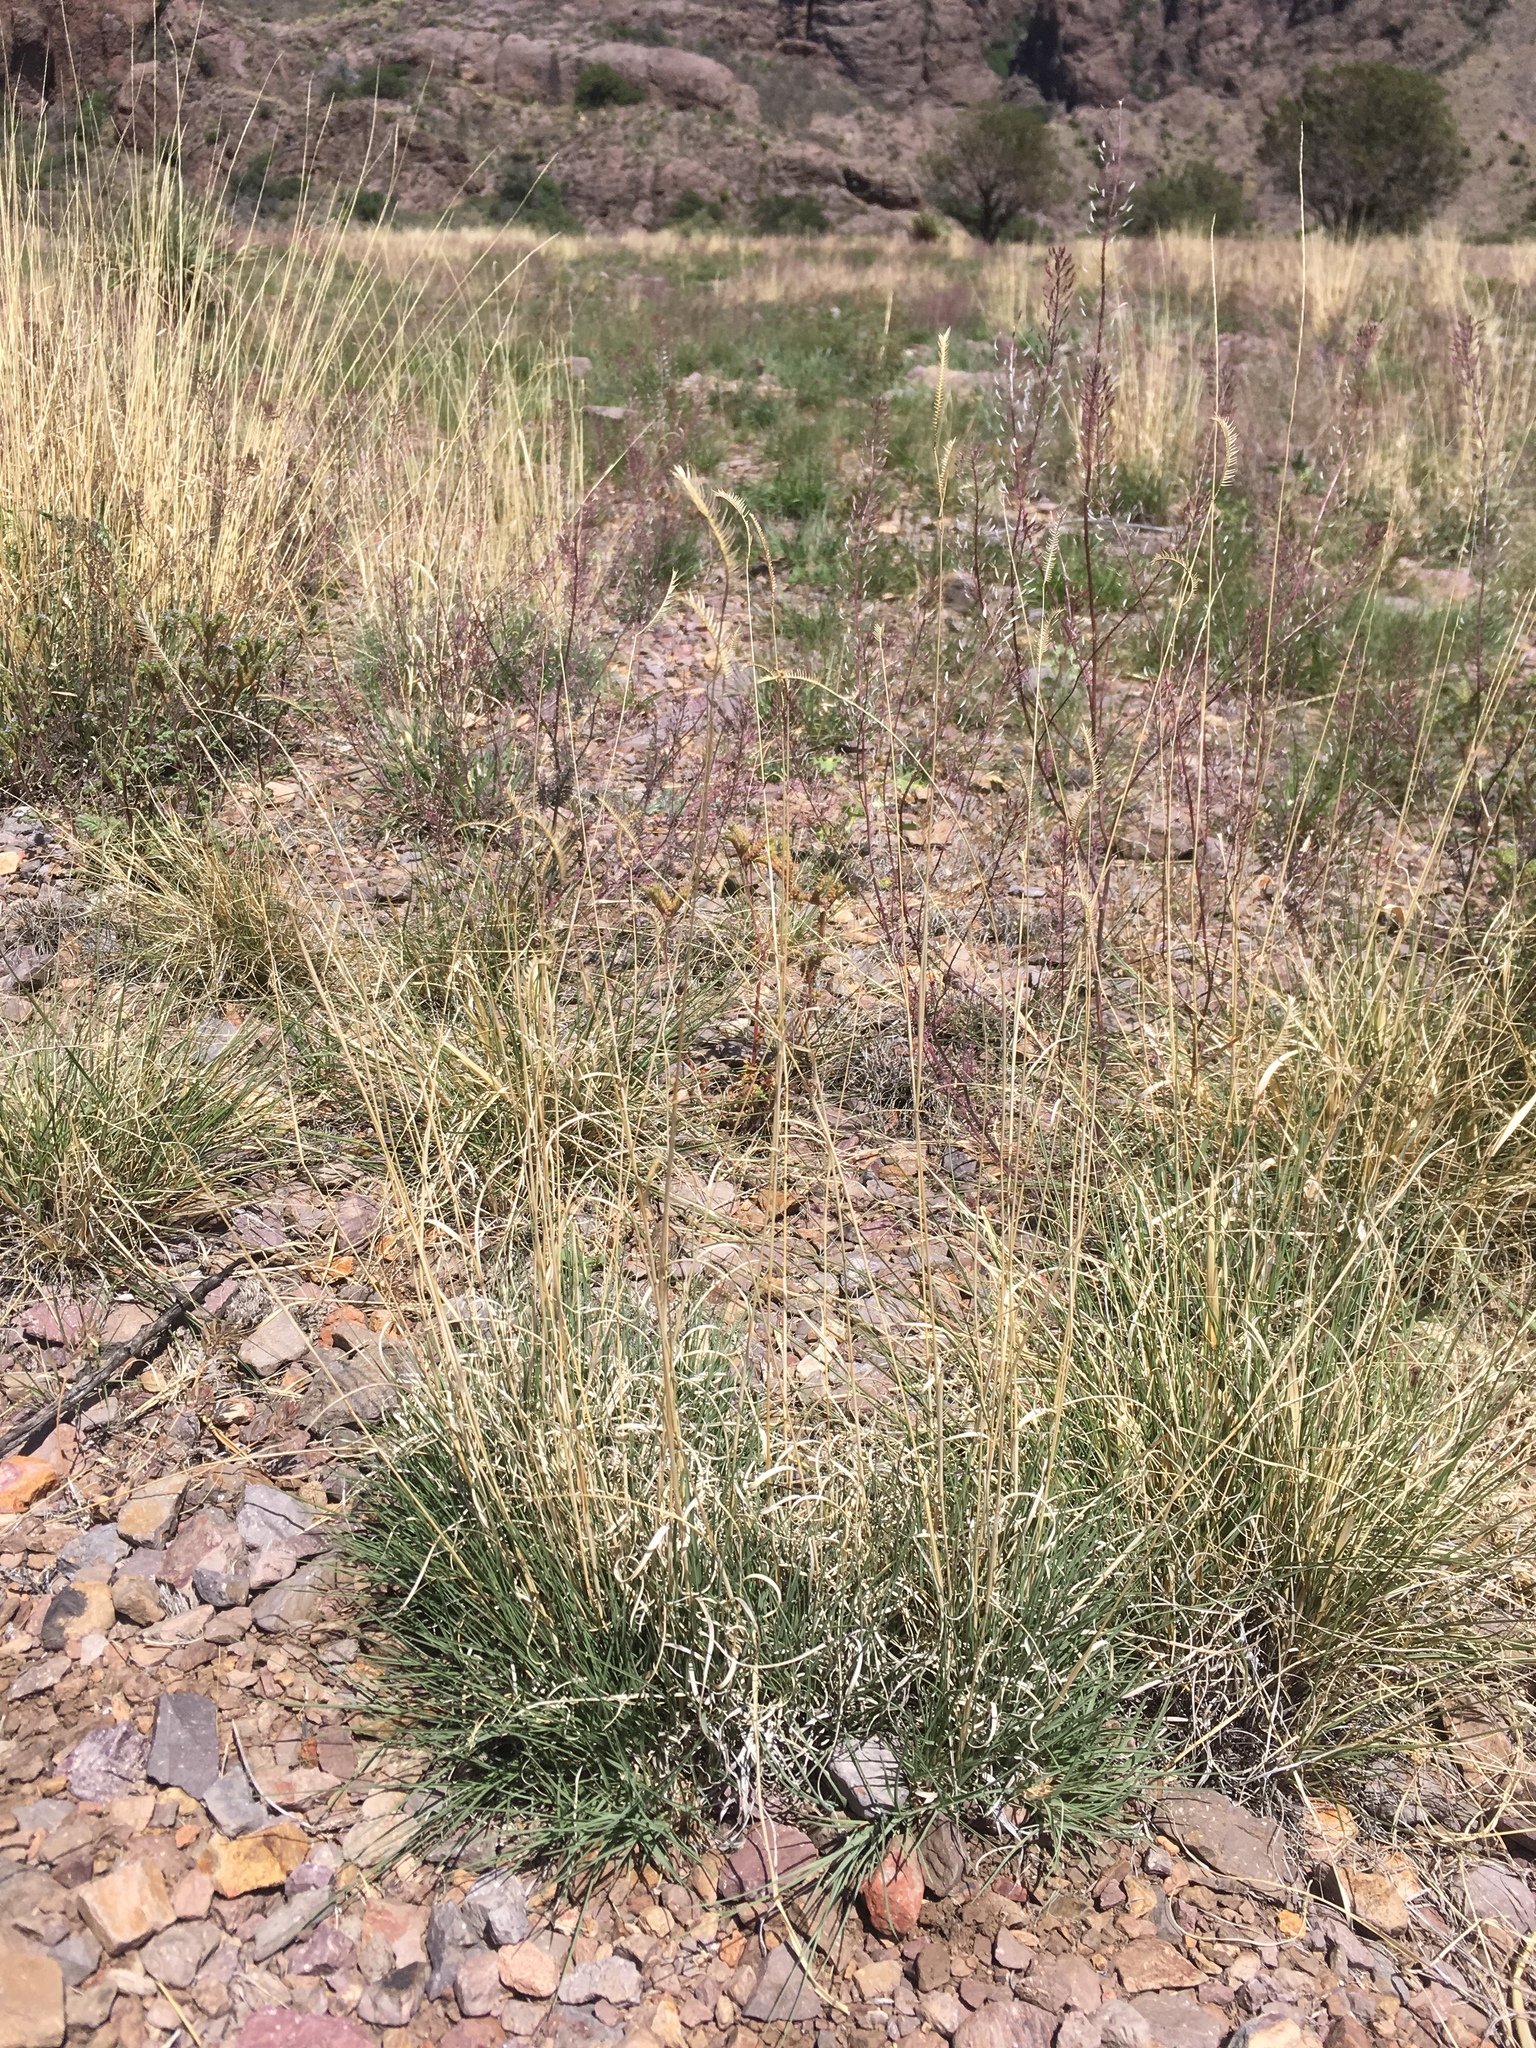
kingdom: Plantae
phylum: Tracheophyta
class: Liliopsida
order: Poales
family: Poaceae
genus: Bouteloua
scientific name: Bouteloua gracilis
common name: Blue grama
